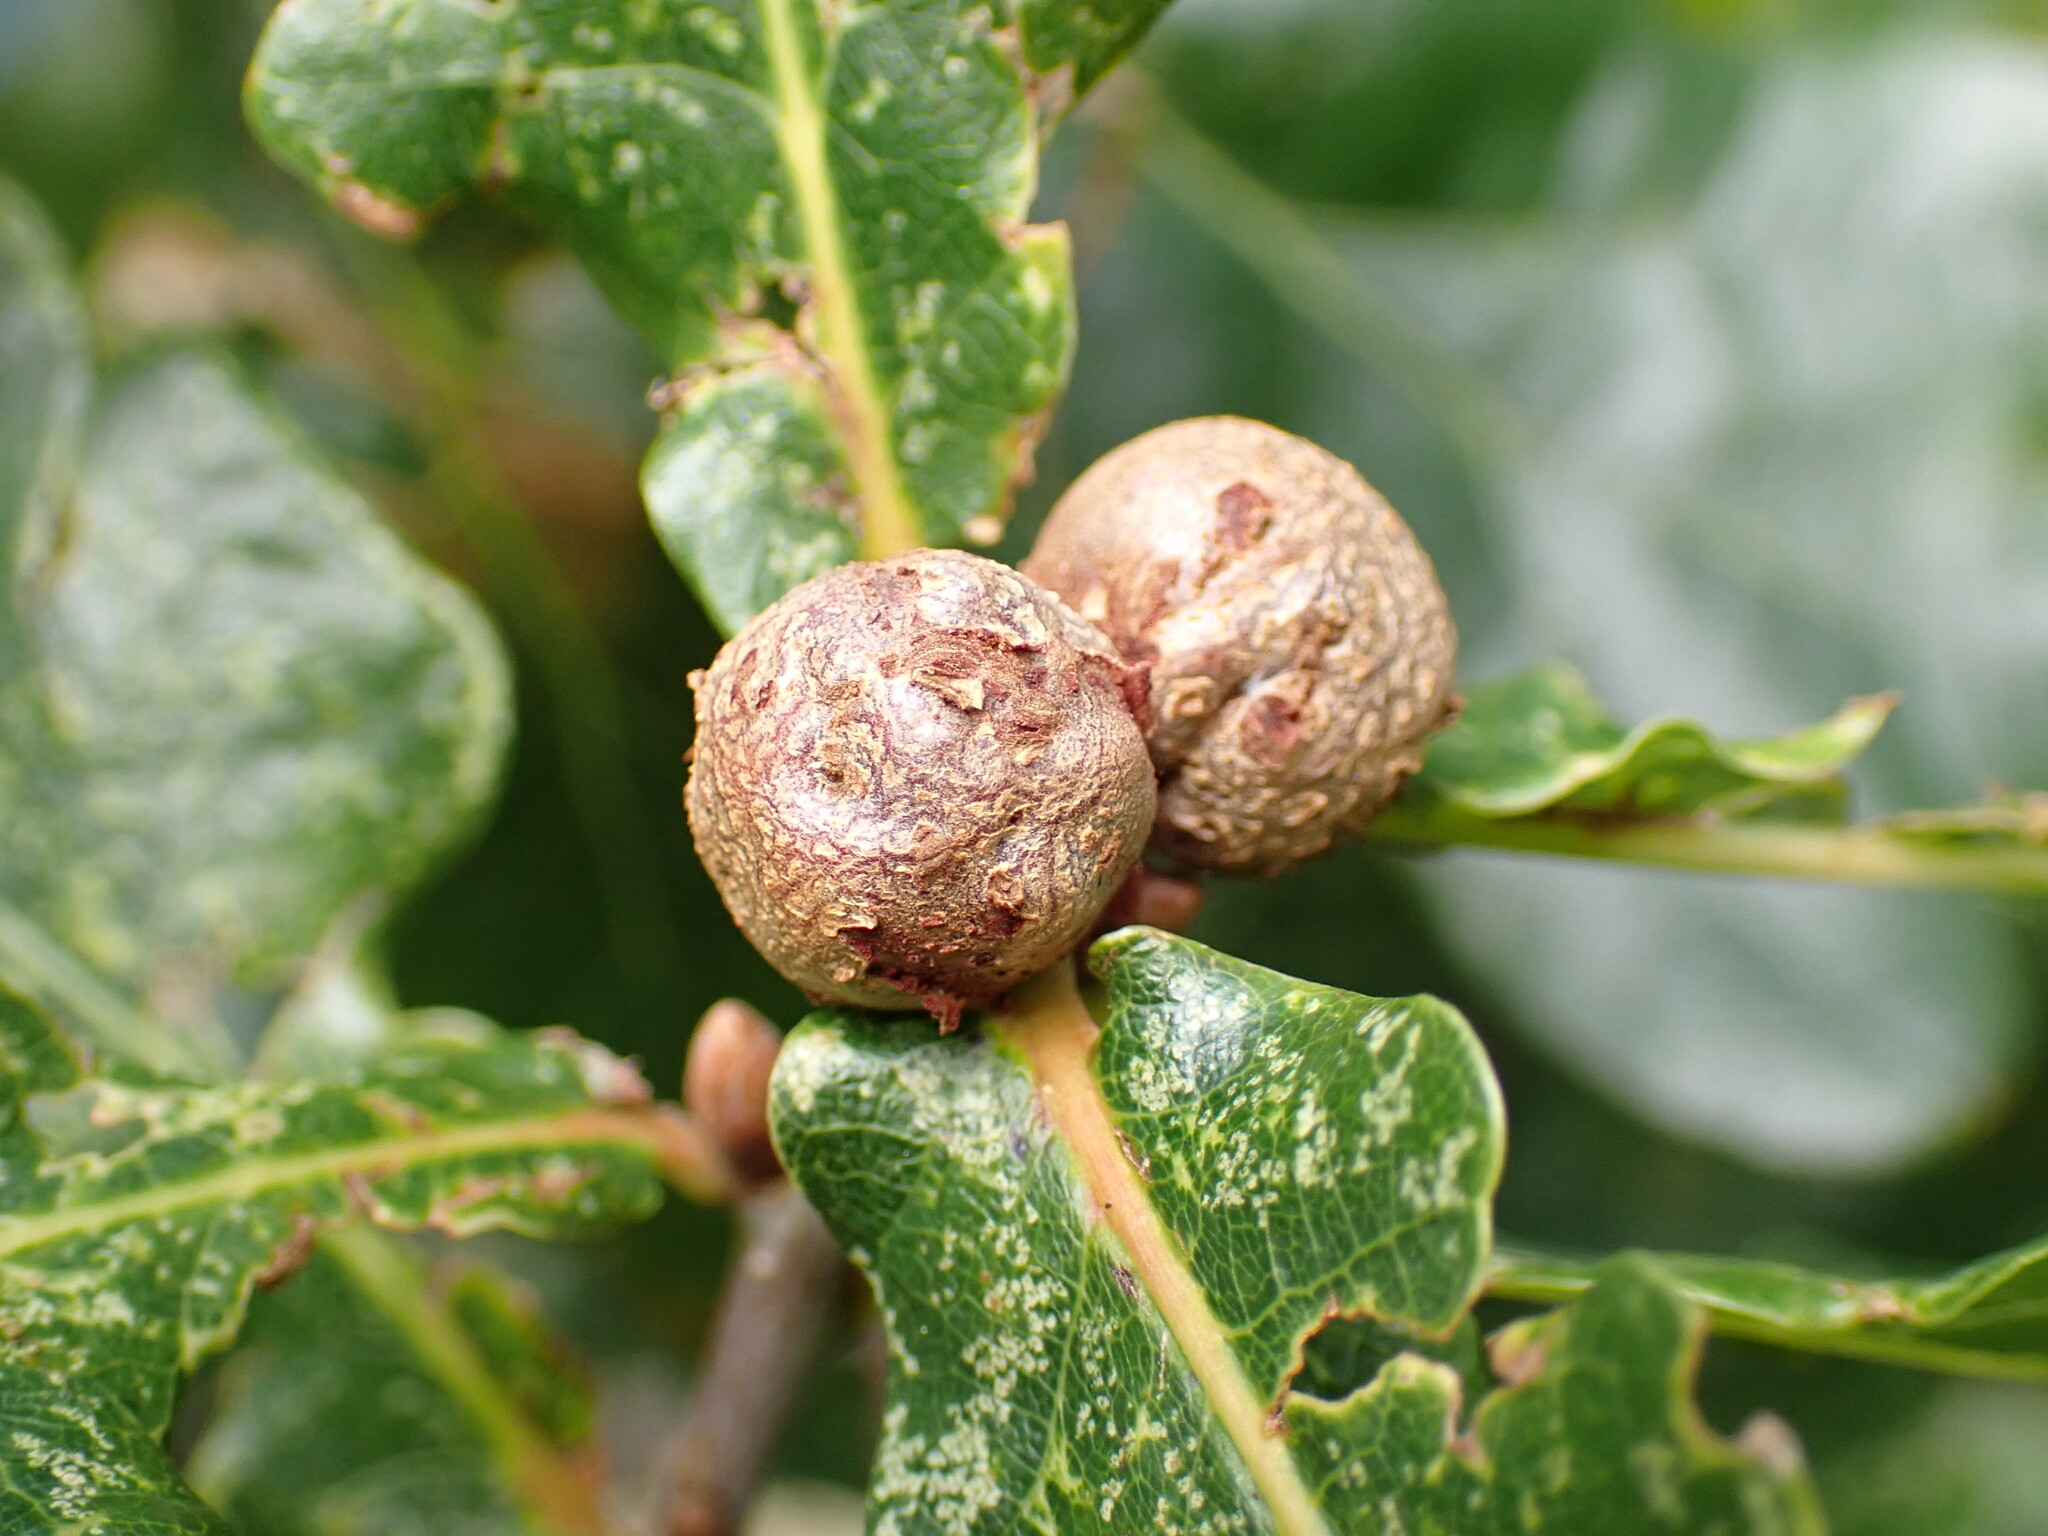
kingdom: Animalia
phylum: Arthropoda
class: Insecta
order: Hymenoptera
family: Cynipidae
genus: Andricus
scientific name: Andricus lignicolus
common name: Cola-nut gall
